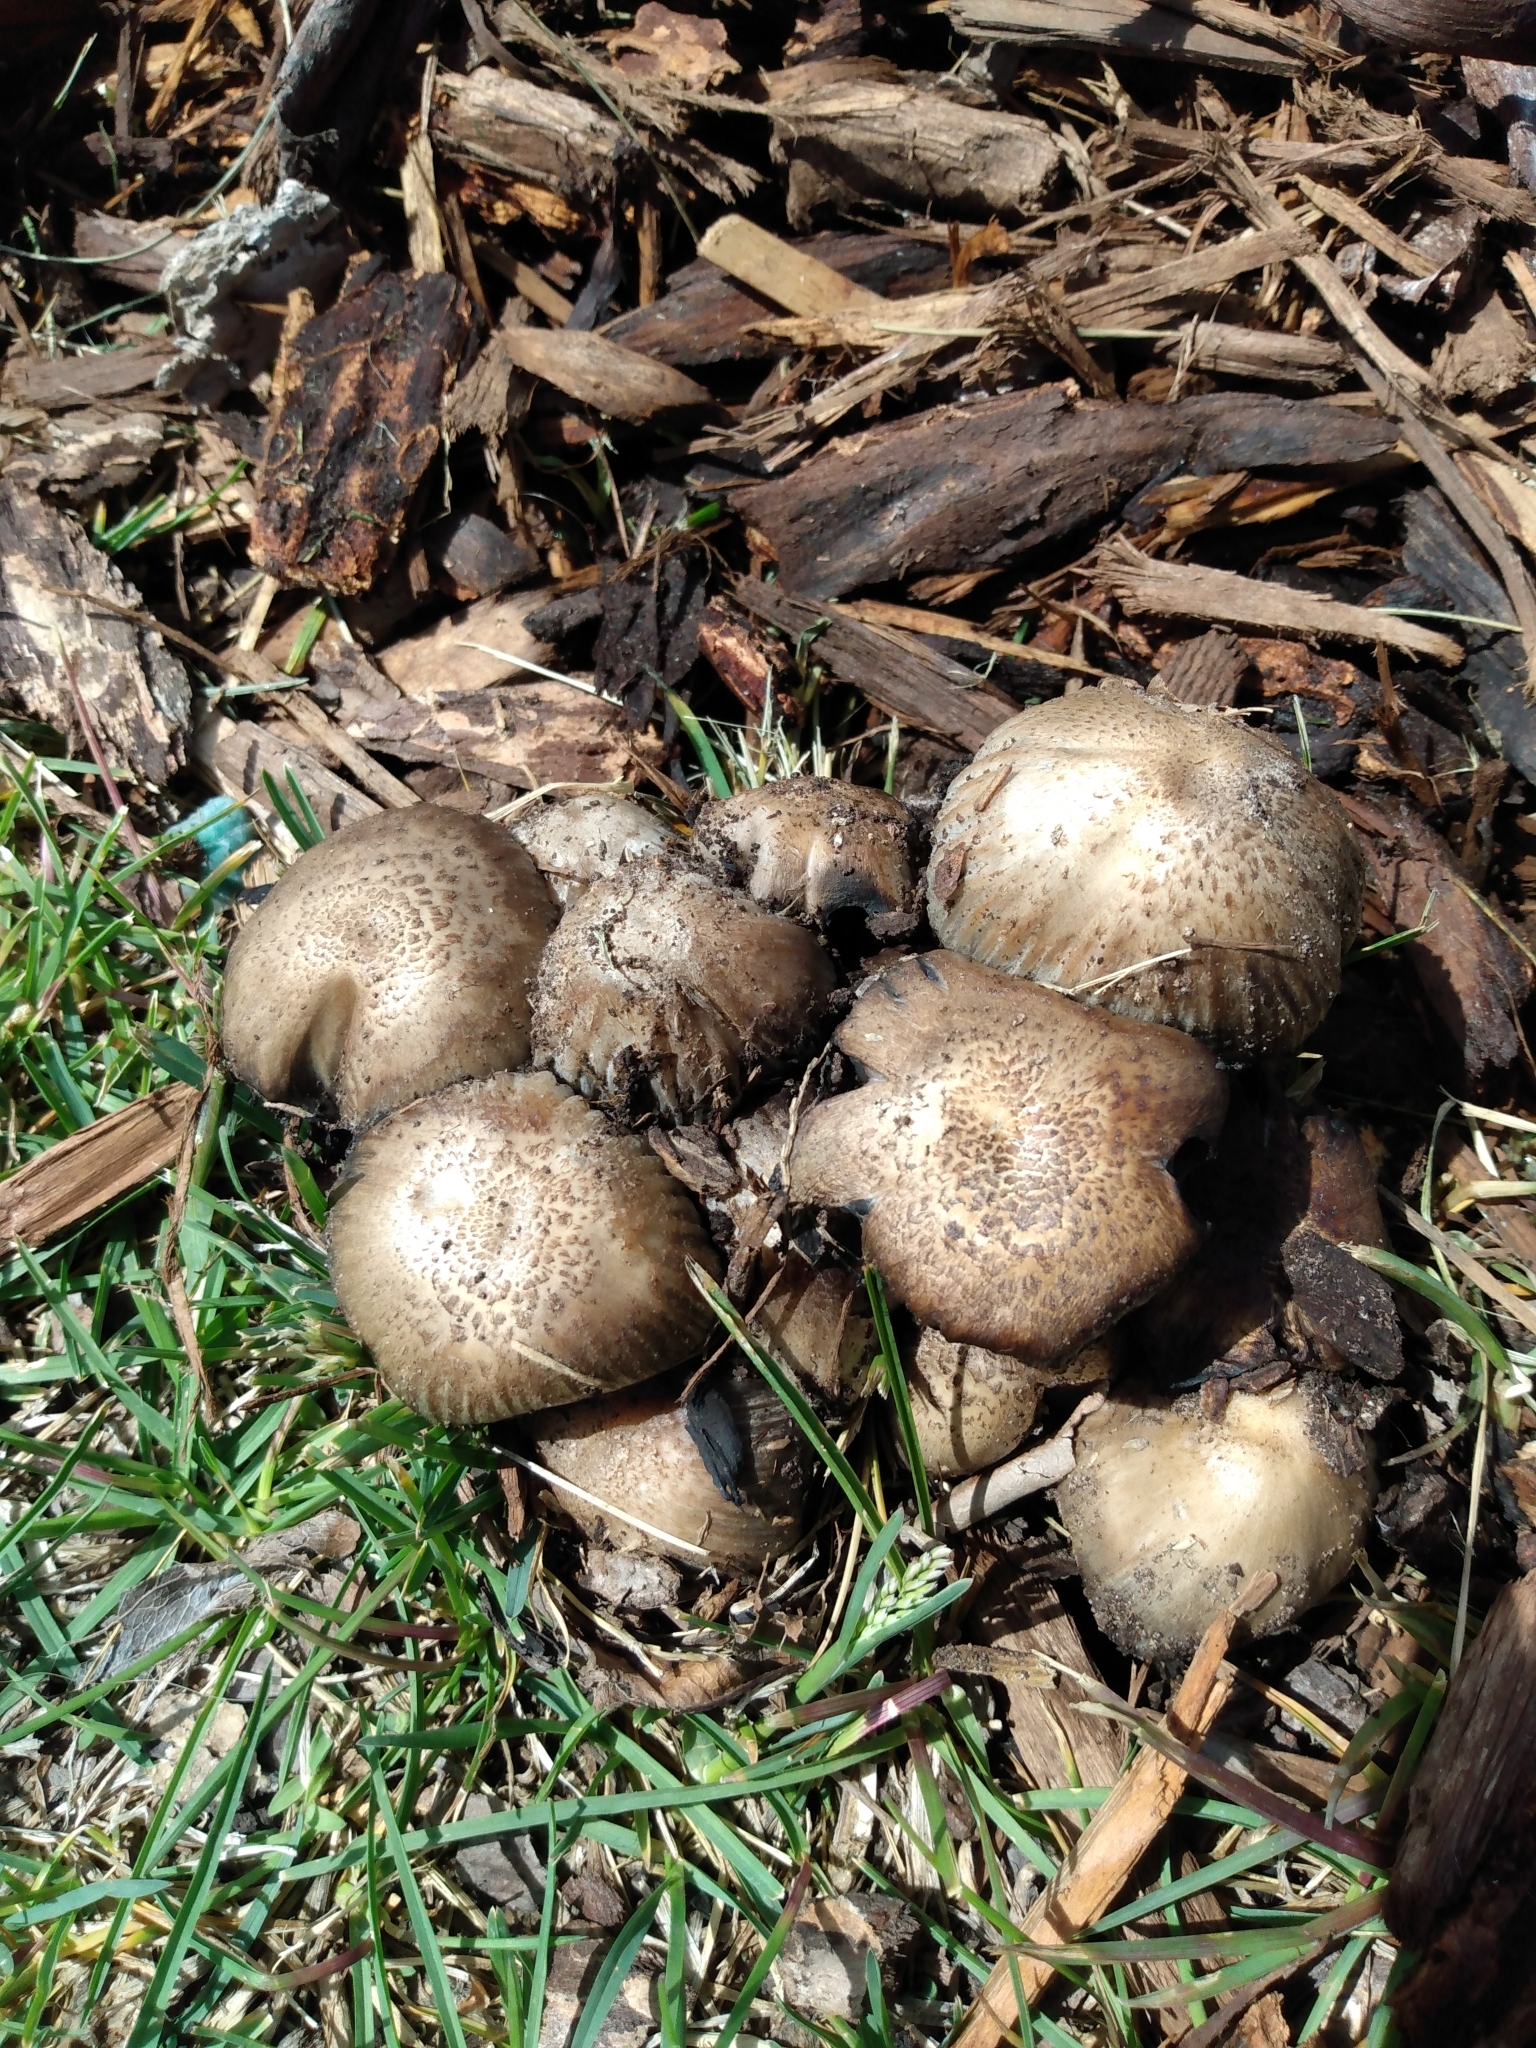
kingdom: Fungi
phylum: Basidiomycota
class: Agaricomycetes
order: Agaricales
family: Psathyrellaceae
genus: Coprinopsis
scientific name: Coprinopsis atramentaria
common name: Common ink-cap
